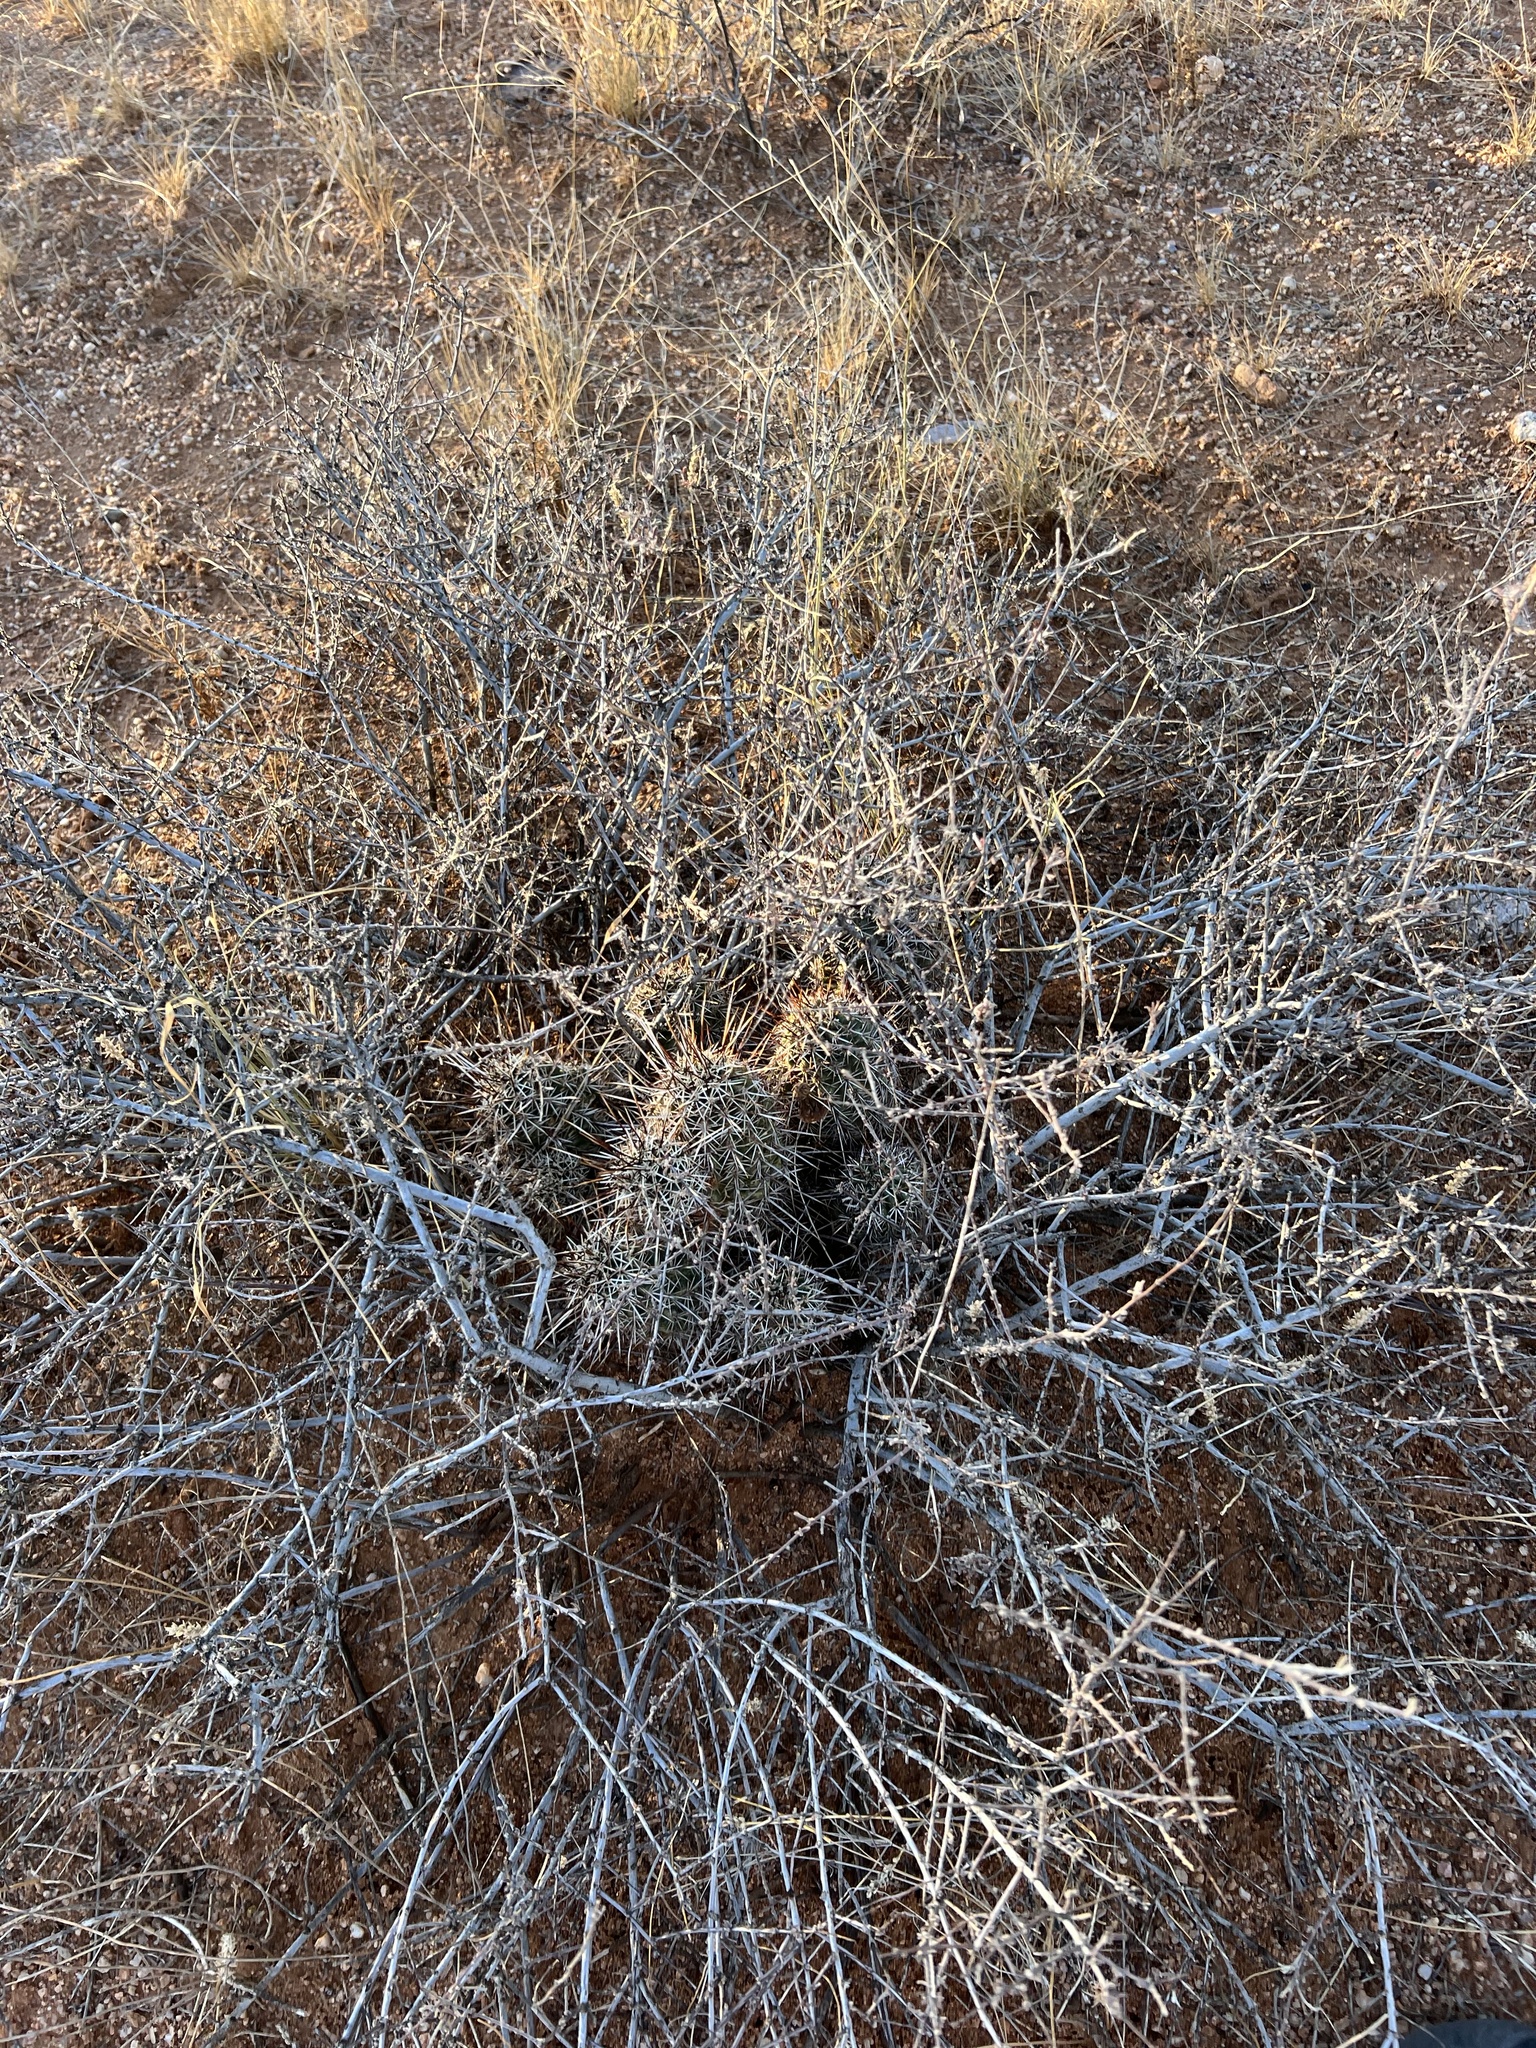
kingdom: Plantae
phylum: Tracheophyta
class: Magnoliopsida
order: Caryophyllales
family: Cactaceae
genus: Echinocereus
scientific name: Echinocereus fasciculatus
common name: Bundle hedgehog
